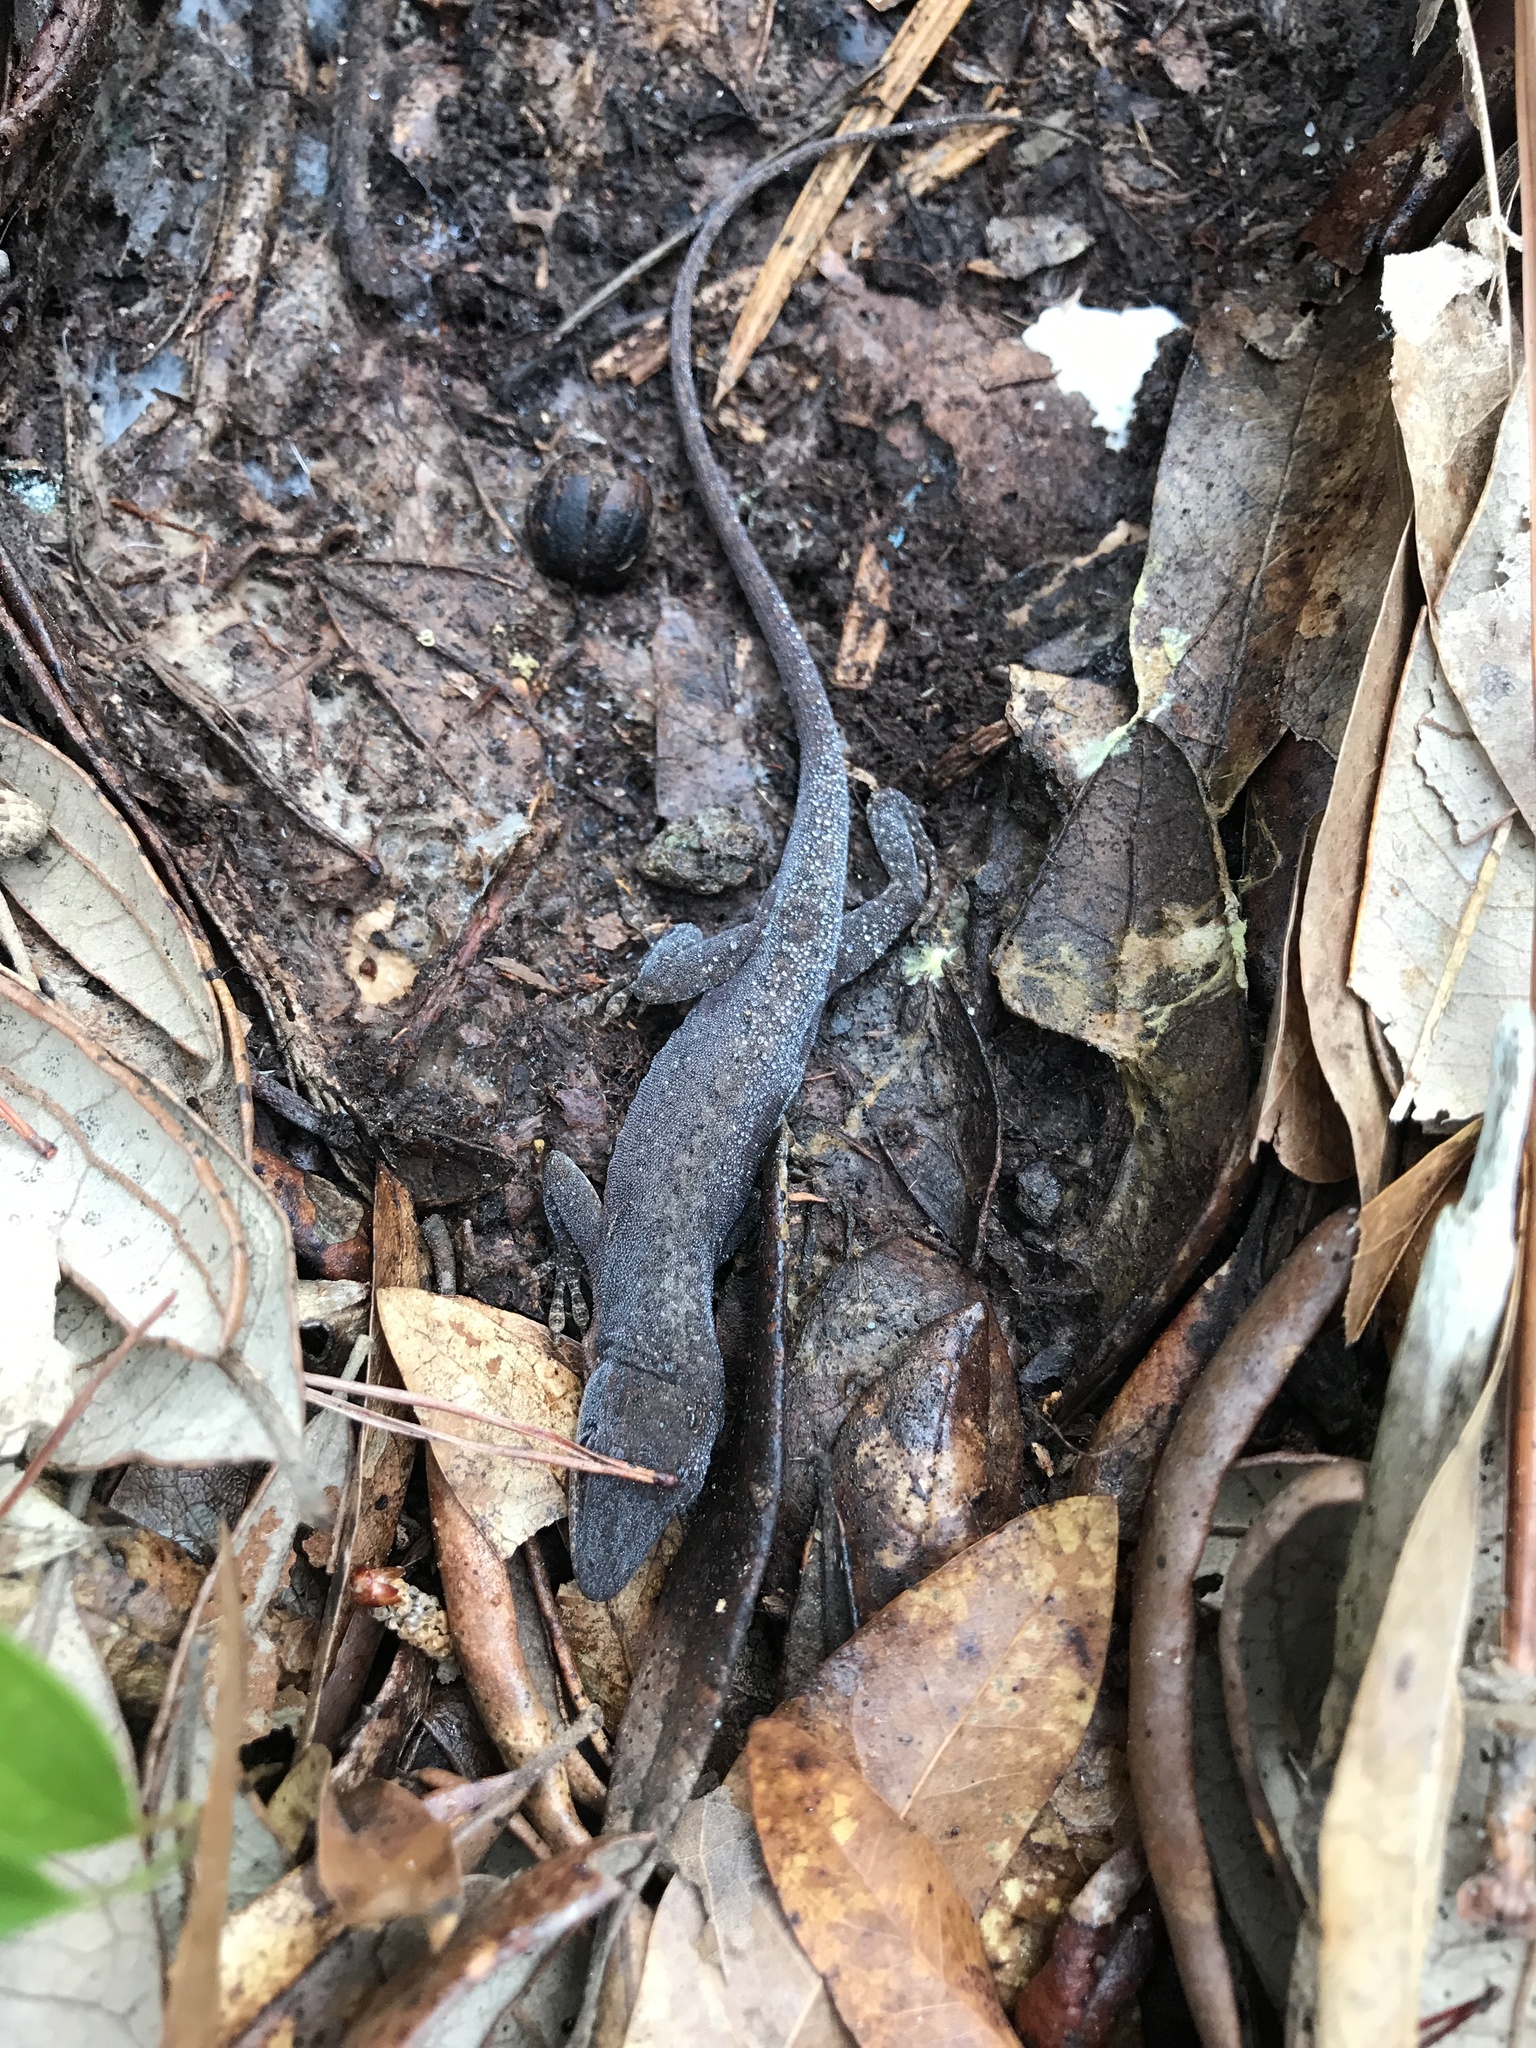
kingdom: Animalia
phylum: Chordata
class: Squamata
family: Dactyloidae
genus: Anolis
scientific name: Anolis carolinensis
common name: Green anole
